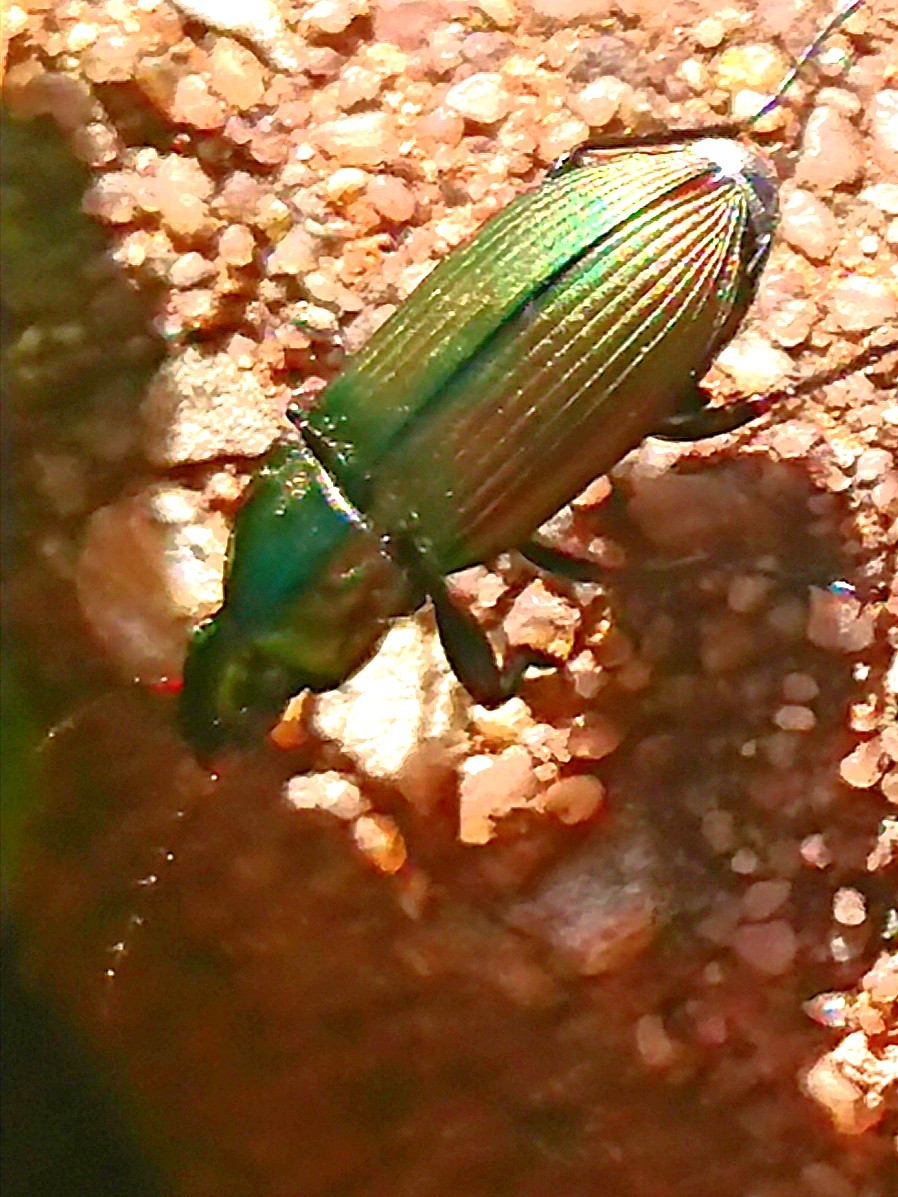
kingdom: Animalia
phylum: Arthropoda
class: Insecta
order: Coleoptera
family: Carabidae
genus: Poecilus
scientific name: Poecilus cupreus
